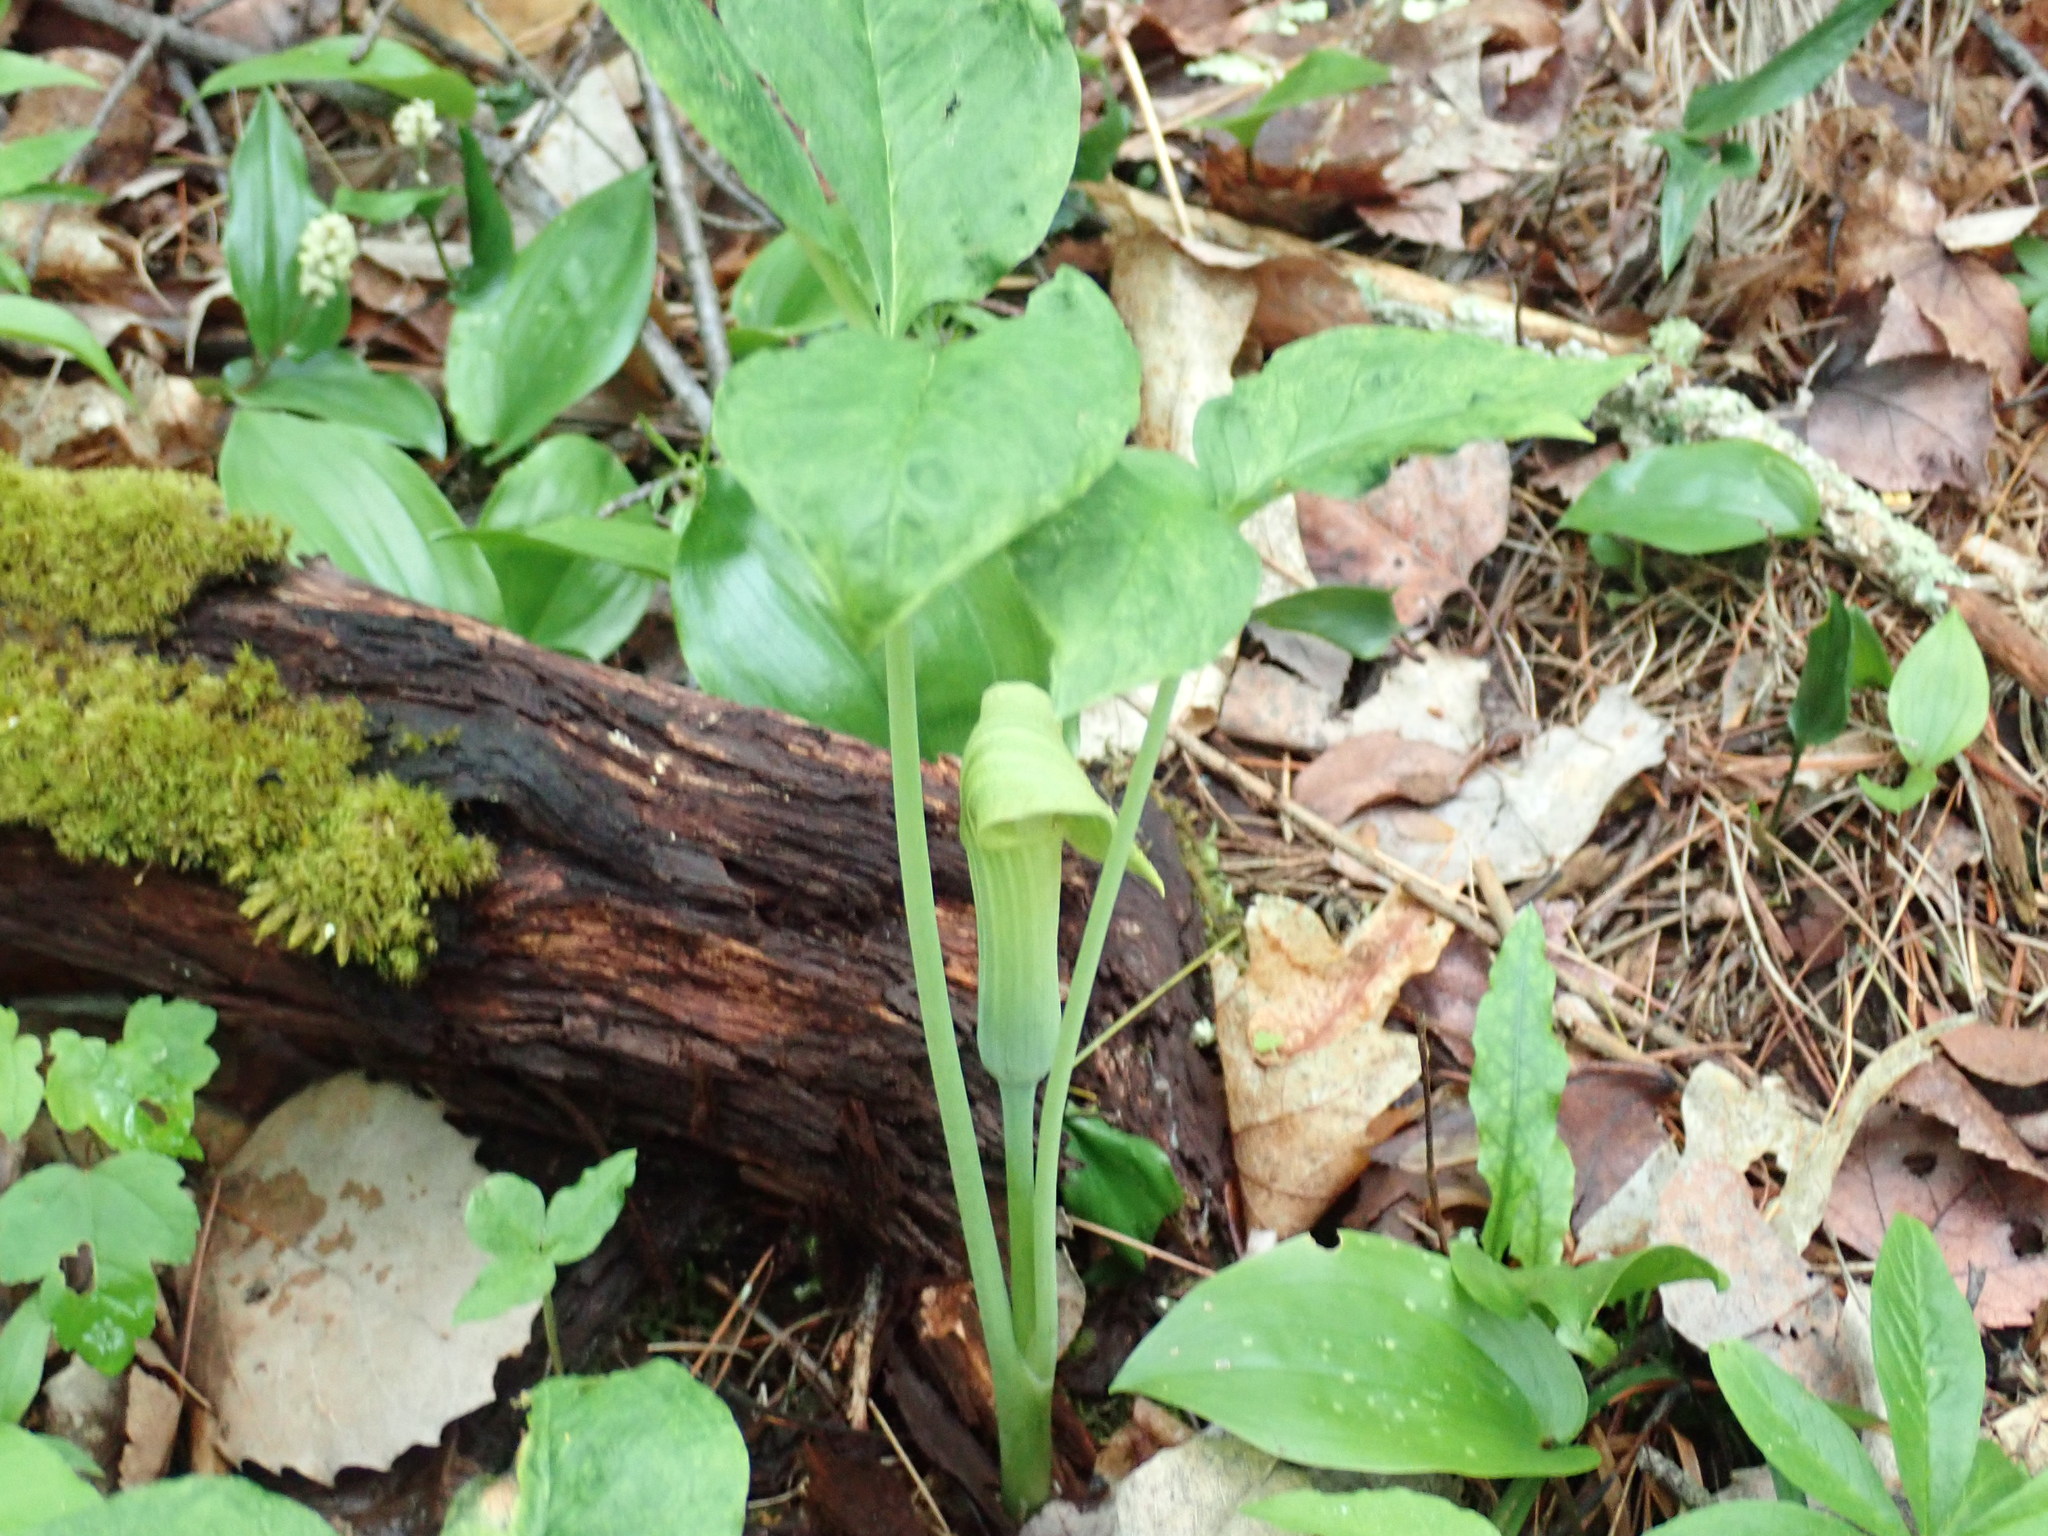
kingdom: Plantae
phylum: Tracheophyta
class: Liliopsida
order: Alismatales
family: Araceae
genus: Arisaema
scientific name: Arisaema triphyllum
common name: Jack-in-the-pulpit
